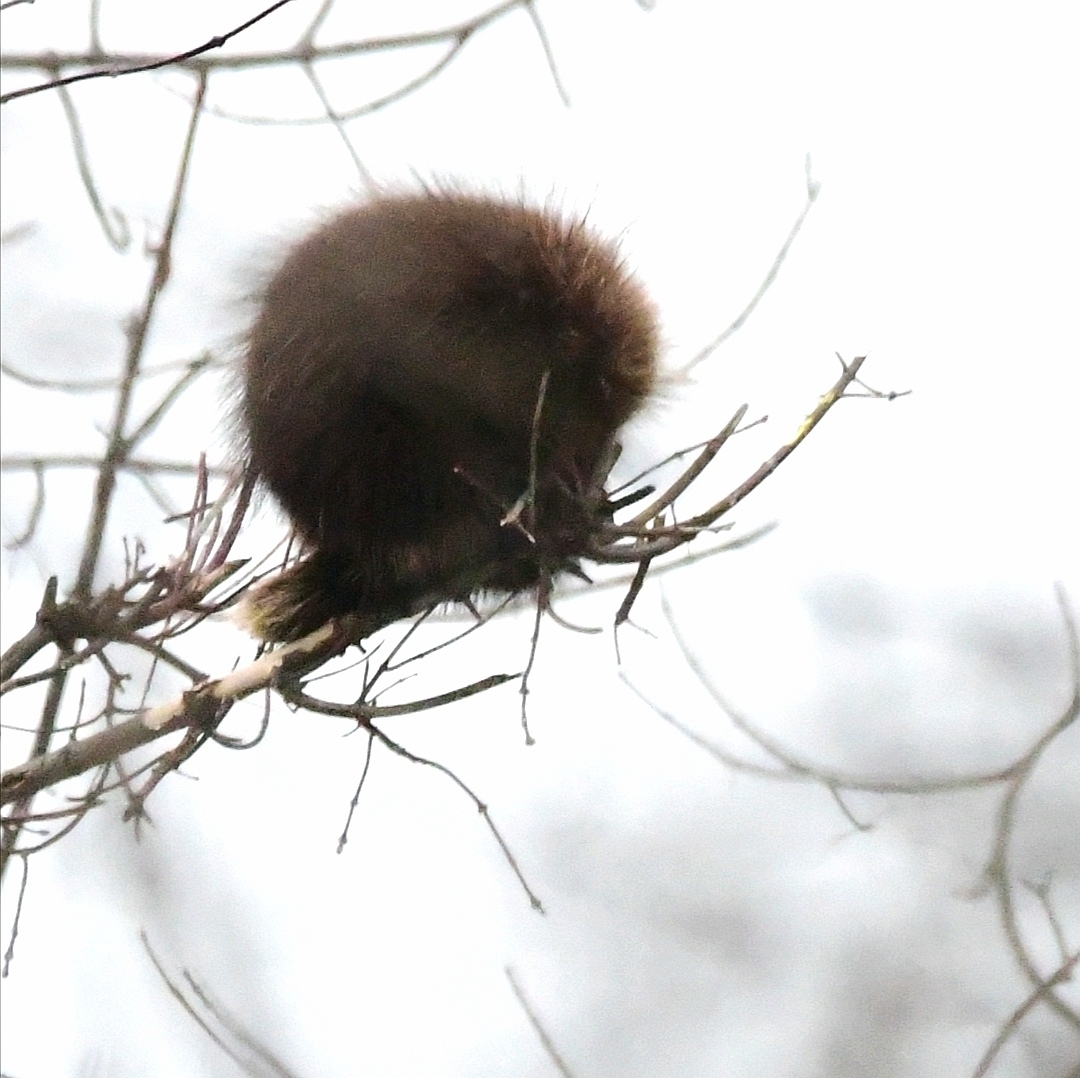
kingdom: Animalia
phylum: Chordata
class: Mammalia
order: Rodentia
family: Erethizontidae
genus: Erethizon
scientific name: Erethizon dorsatus
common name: North american porcupine
